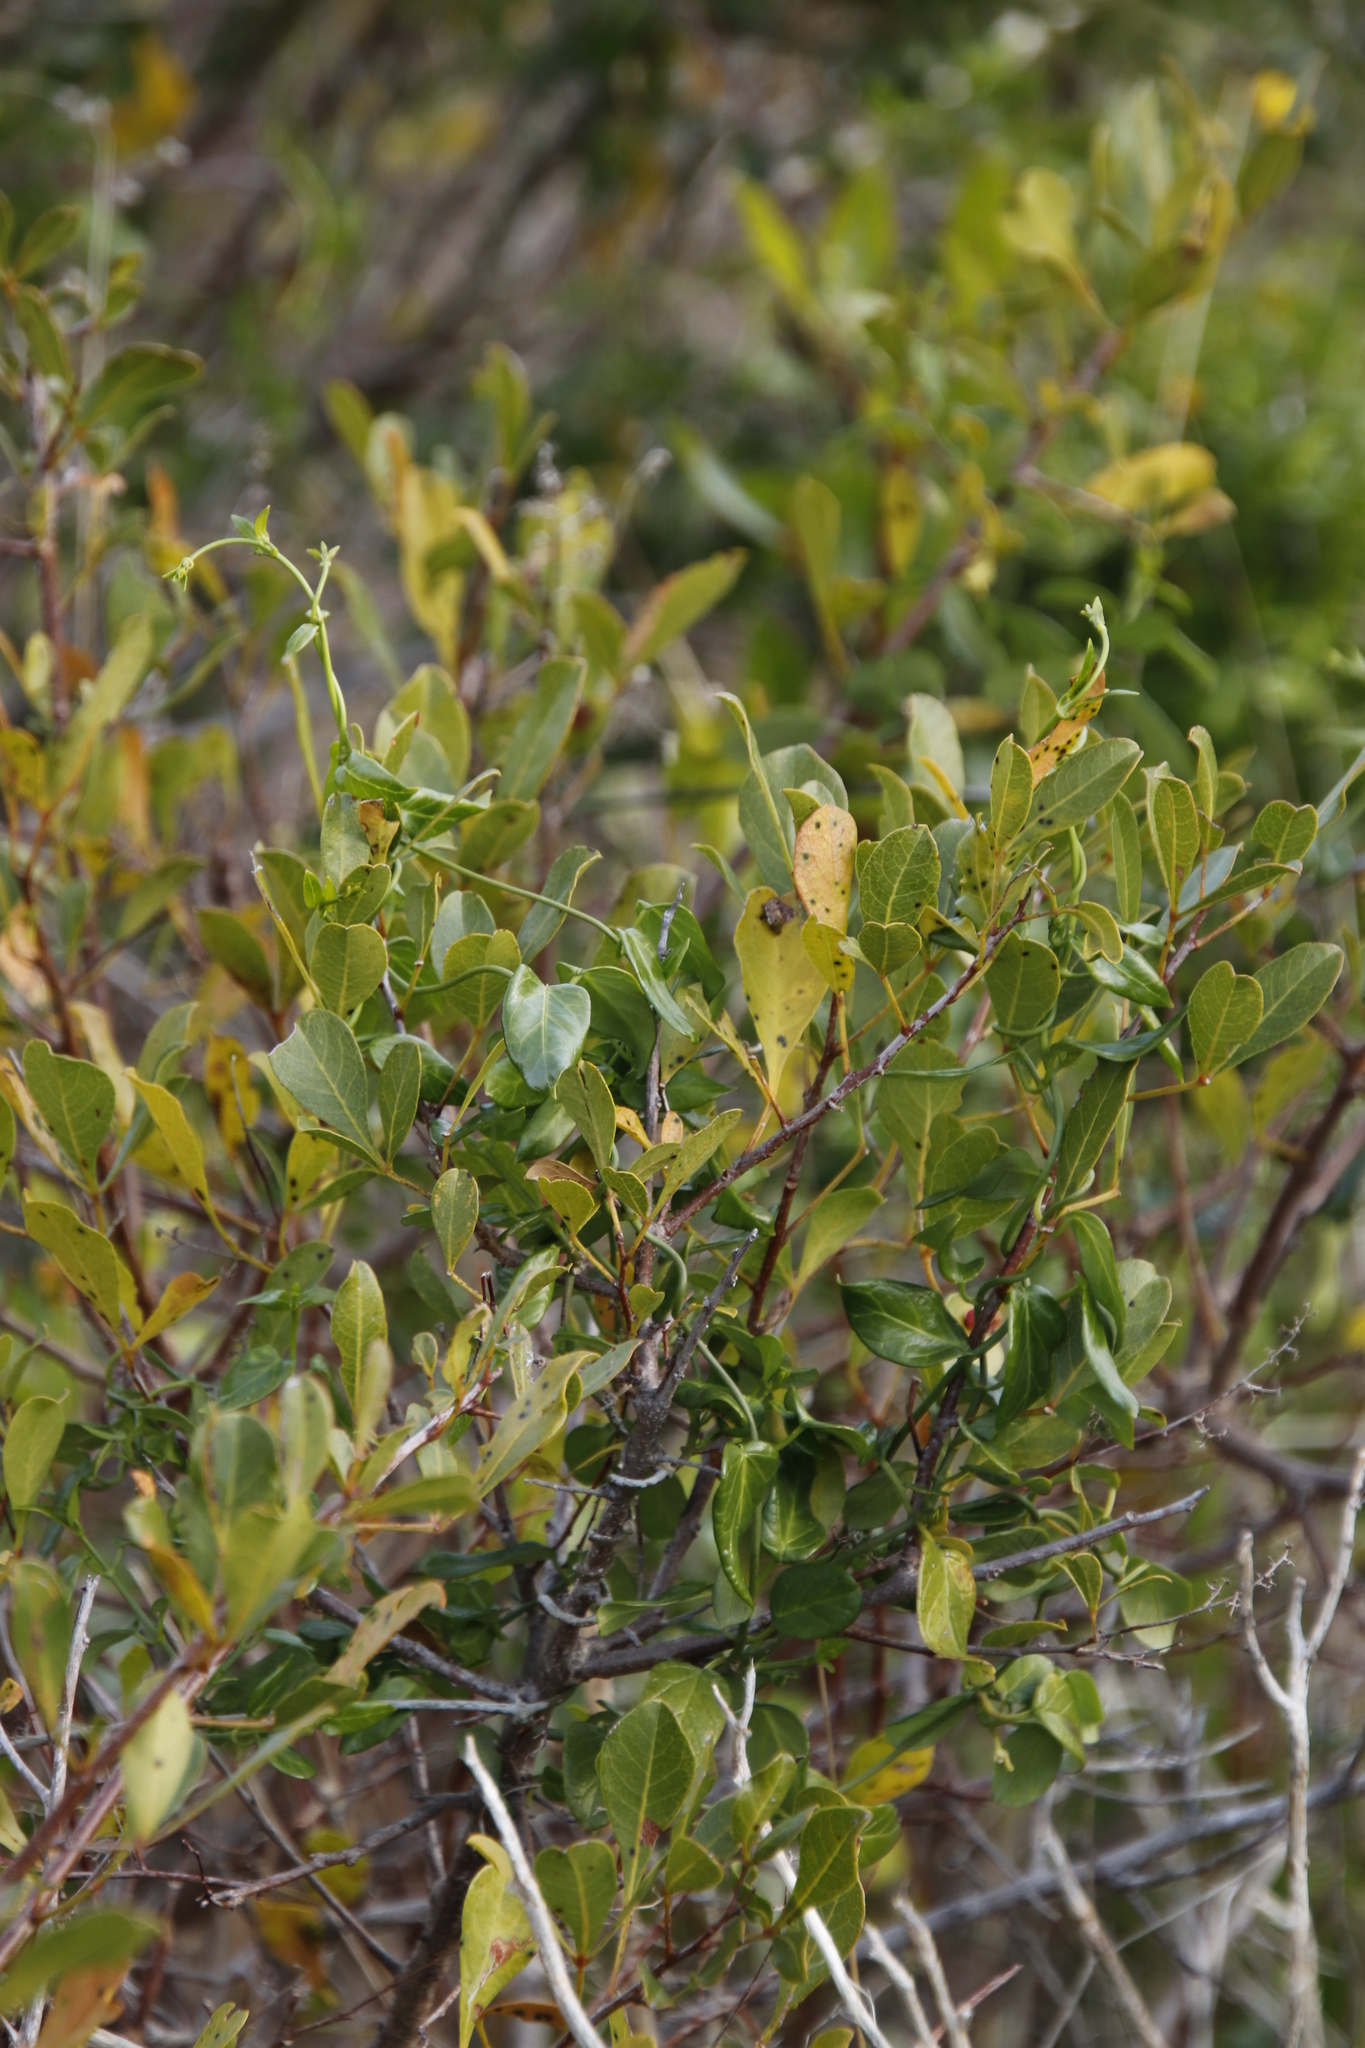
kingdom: Plantae
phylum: Tracheophyta
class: Magnoliopsida
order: Sapindales
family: Anacardiaceae
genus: Searsia
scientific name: Searsia laevigata
